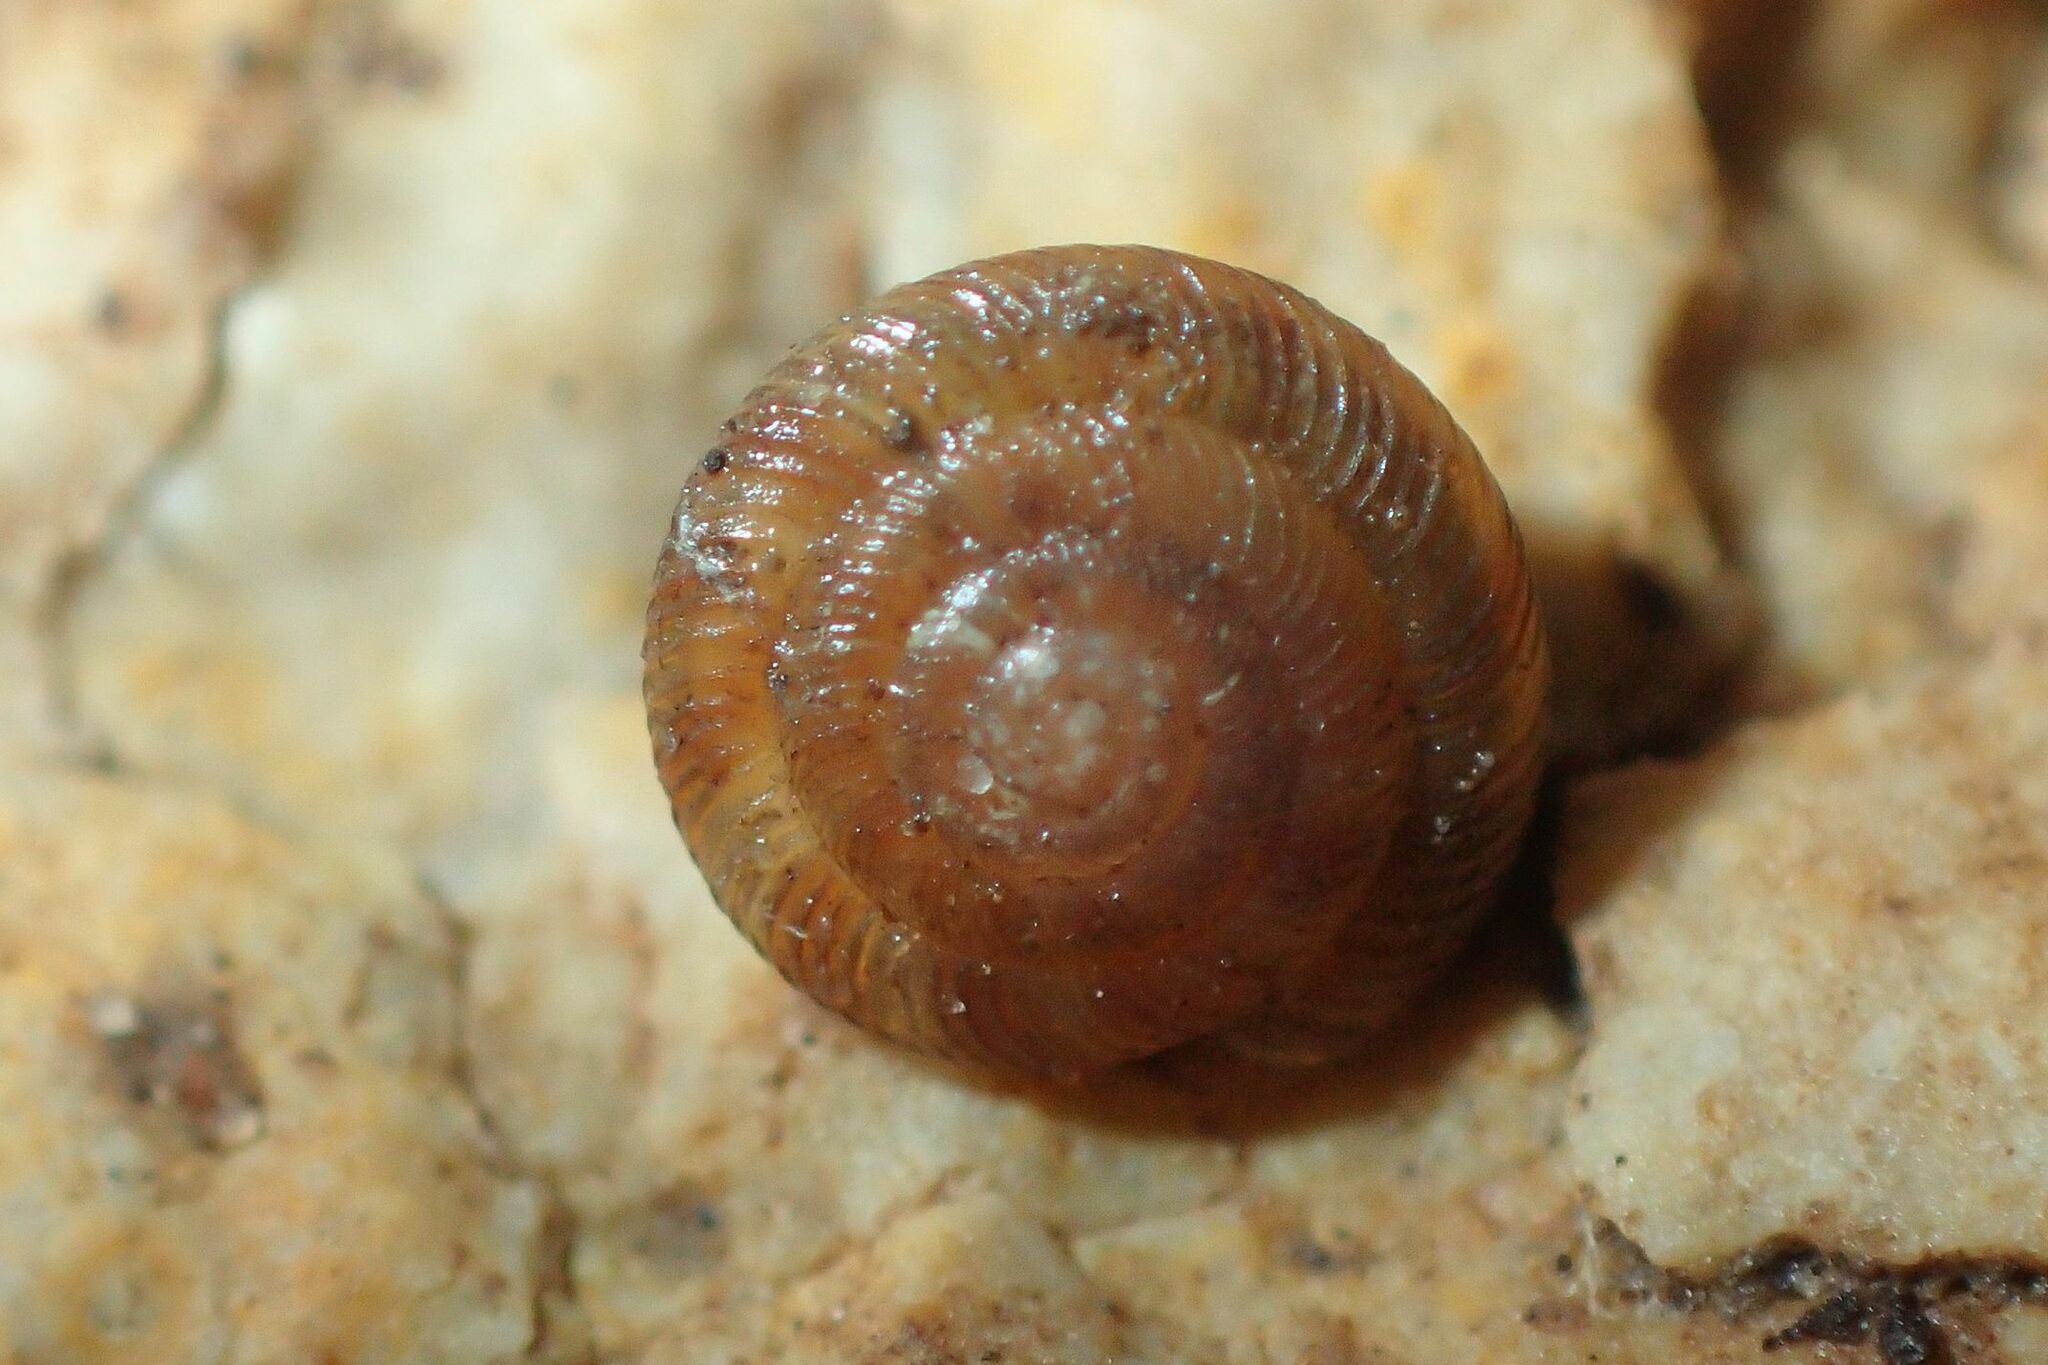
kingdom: Animalia
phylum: Mollusca
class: Gastropoda
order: Stylommatophora
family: Discidae
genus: Discus
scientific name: Discus rotundatus
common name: Rounded snail
